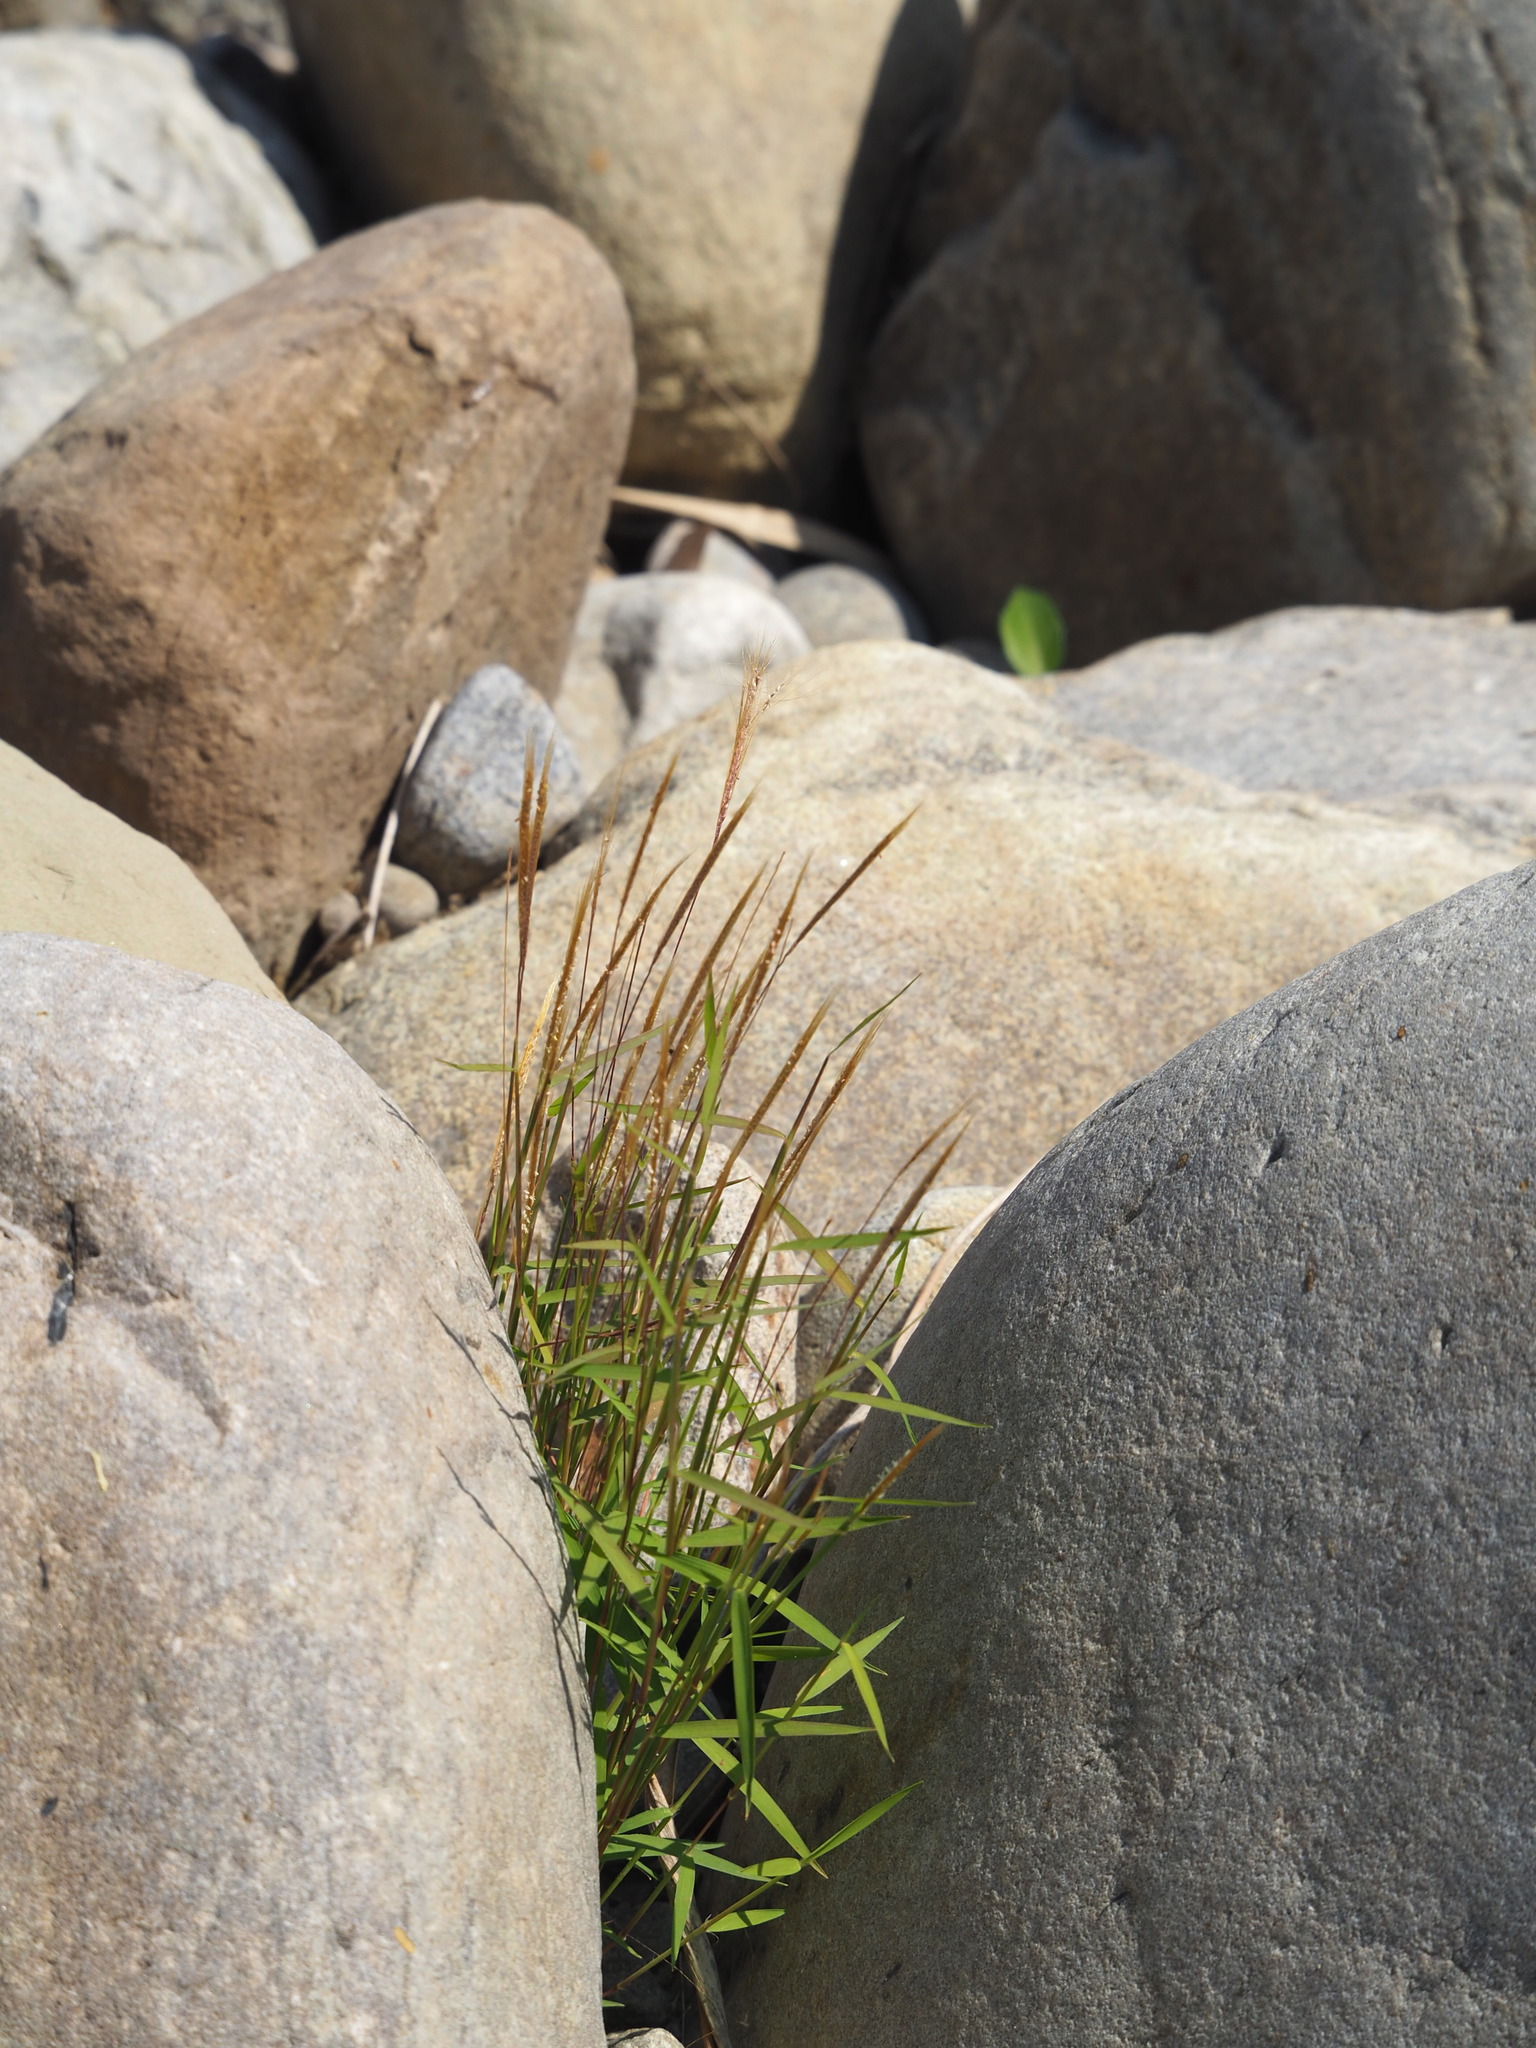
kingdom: Plantae
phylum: Tracheophyta
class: Liliopsida
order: Poales
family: Poaceae
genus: Pogonatherum
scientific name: Pogonatherum crinitum
